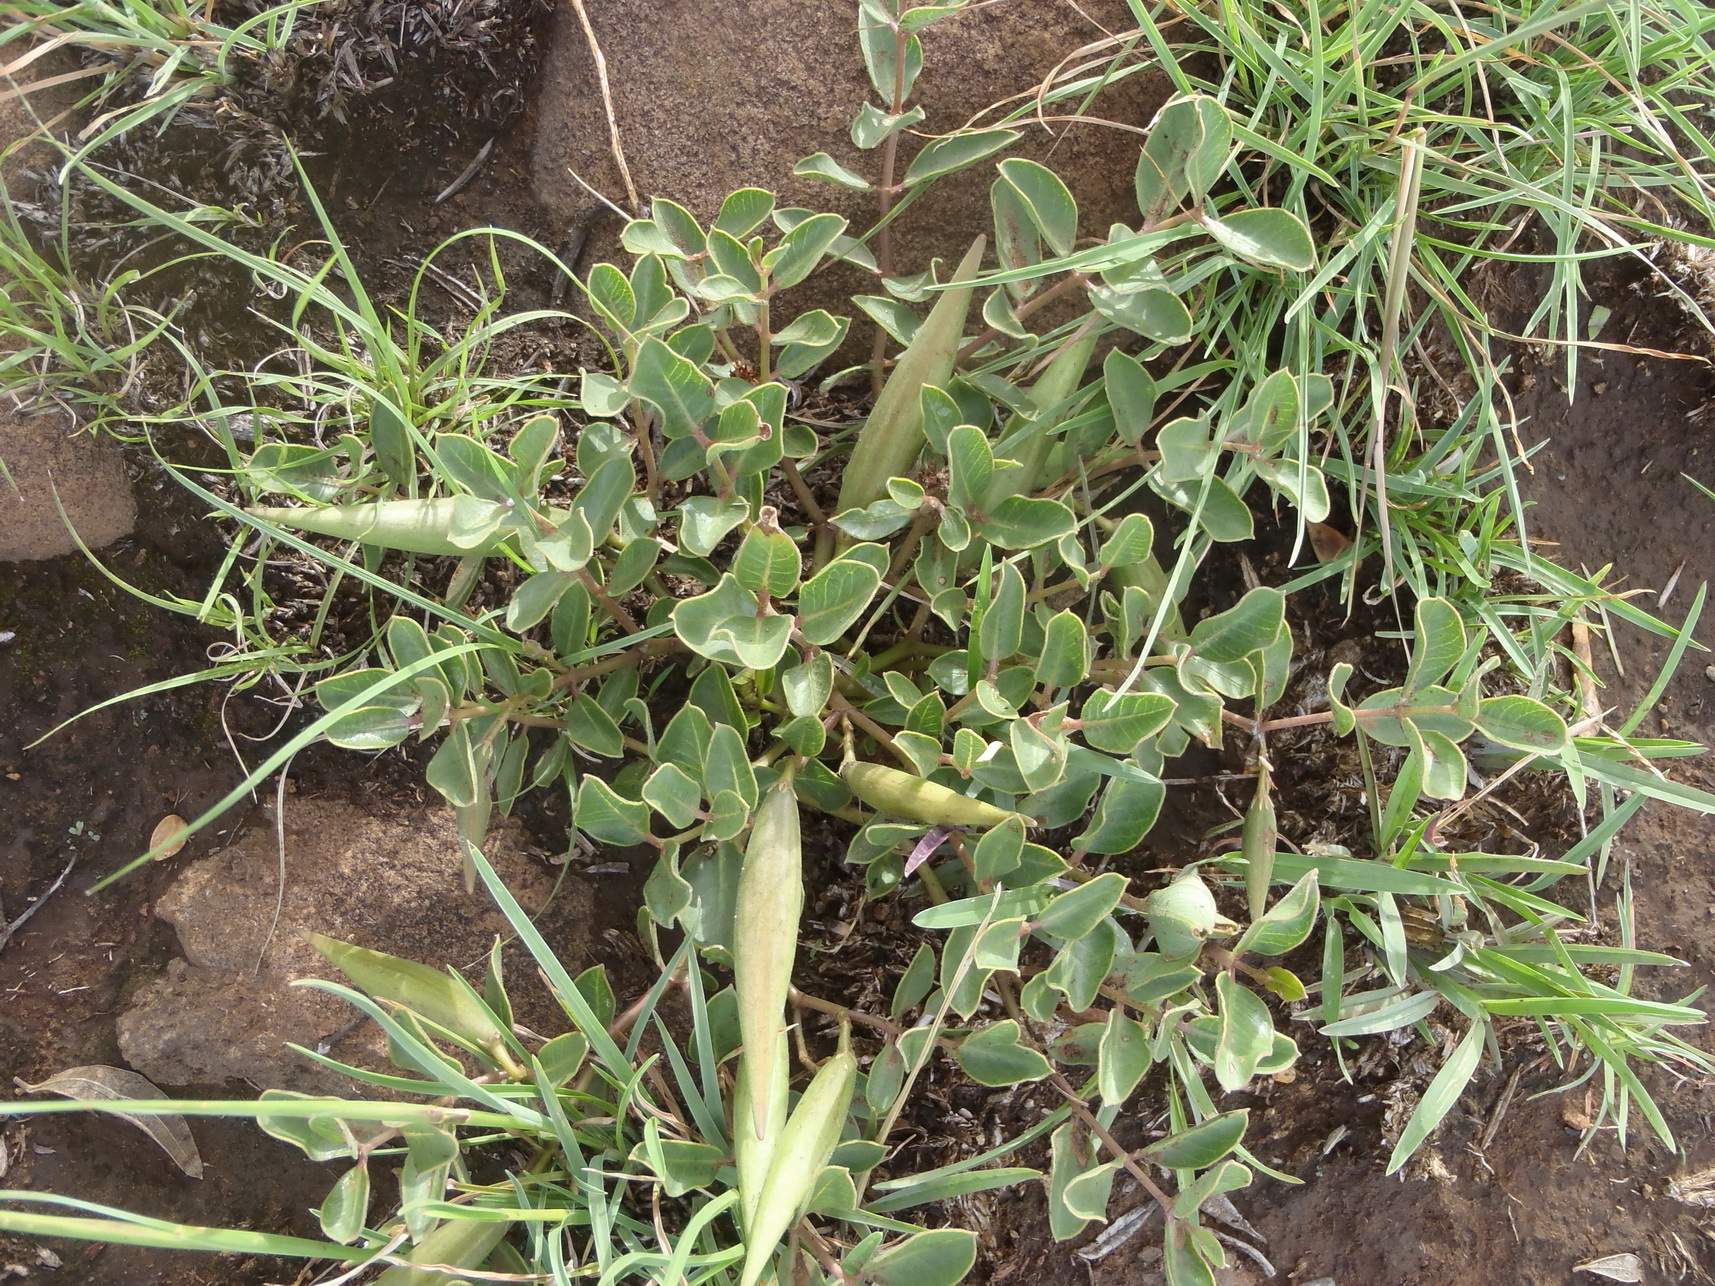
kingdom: Plantae
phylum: Tracheophyta
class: Magnoliopsida
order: Gentianales
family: Apocynaceae
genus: Raphionacme
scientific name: Raphionacme hirsuta
